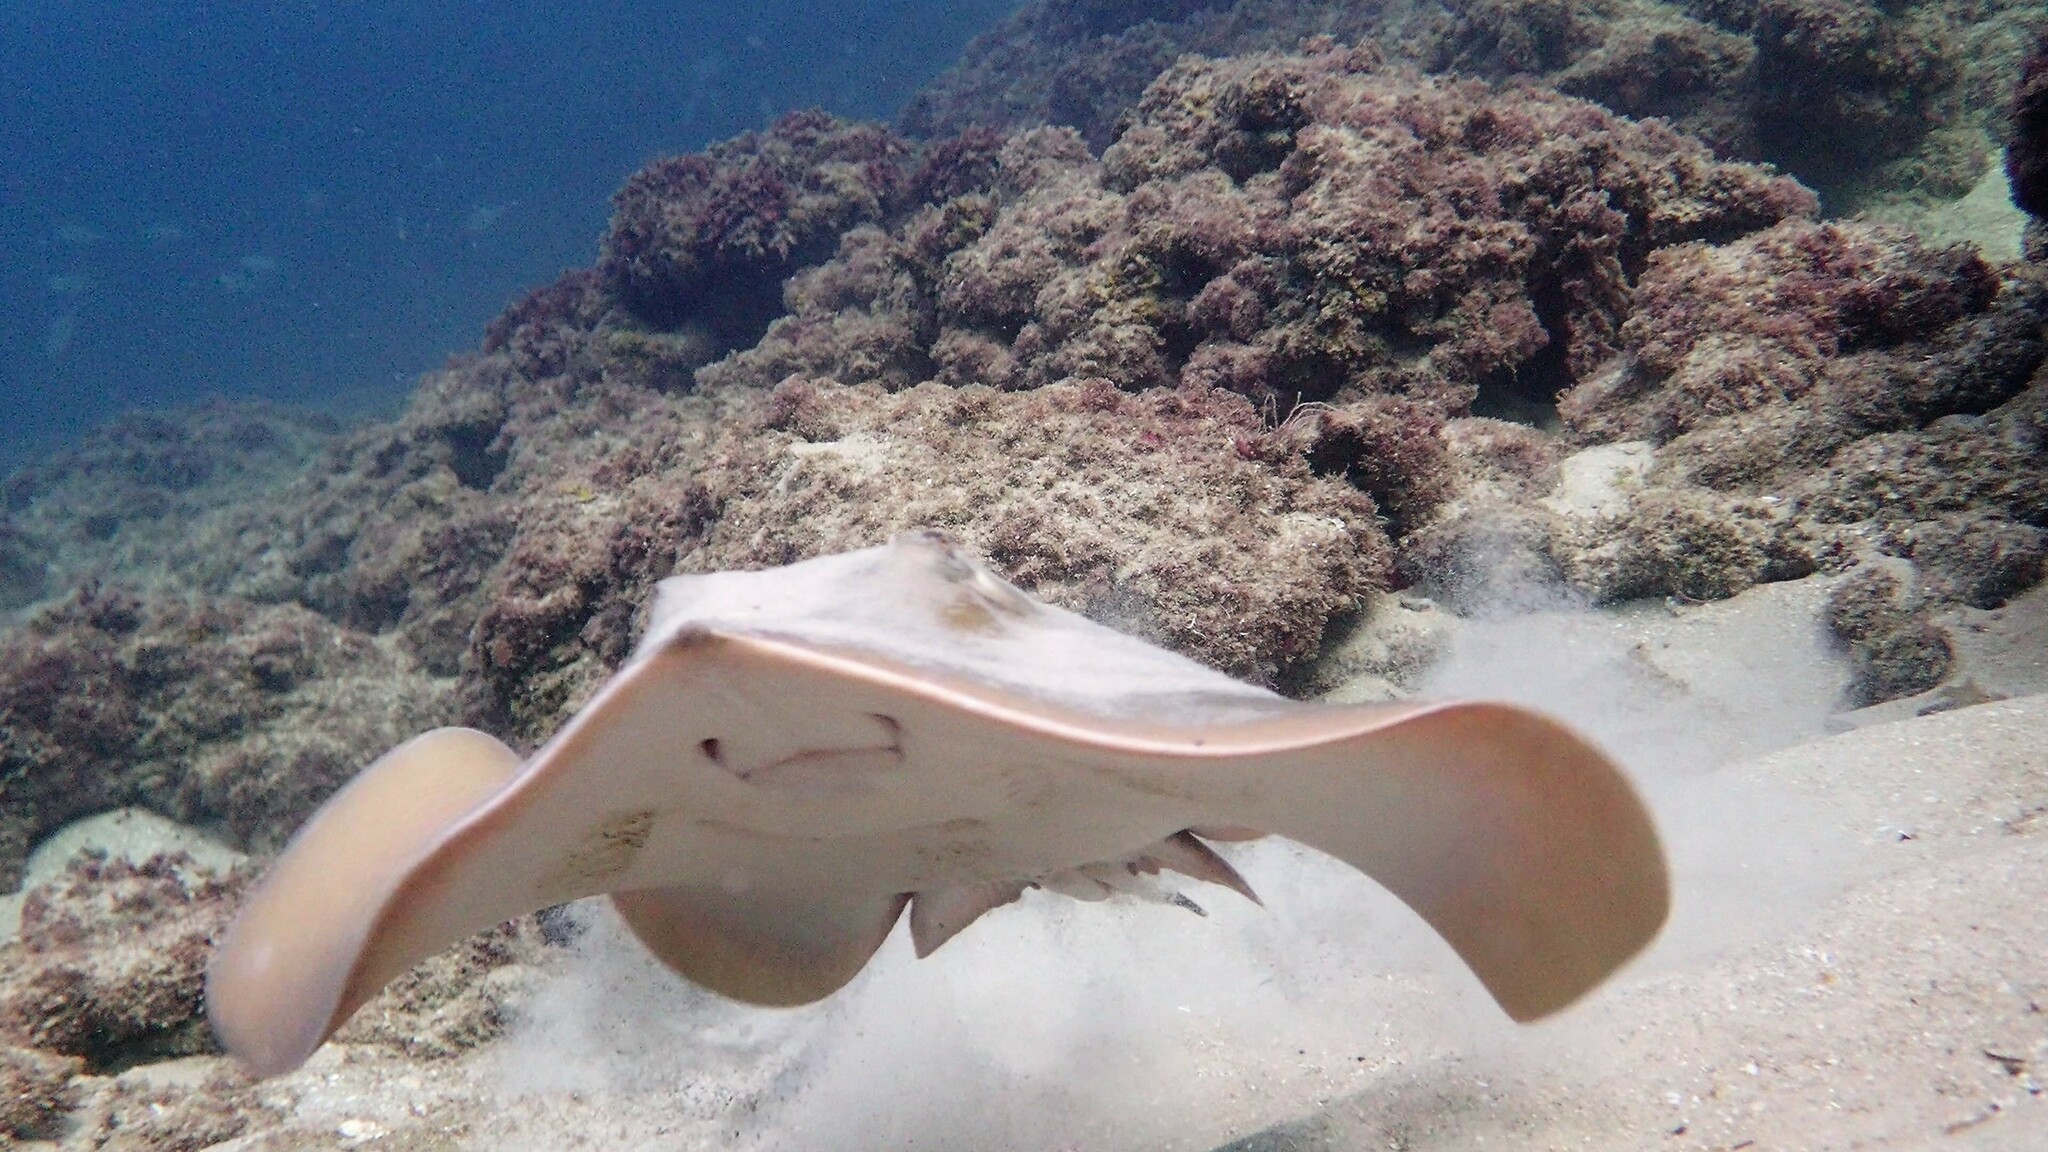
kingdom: Animalia
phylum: Chordata
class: Elasmobranchii
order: Myliobatiformes
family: Dasyatidae
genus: Dasyatis
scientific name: Dasyatis pastinaca
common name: Common stingray
